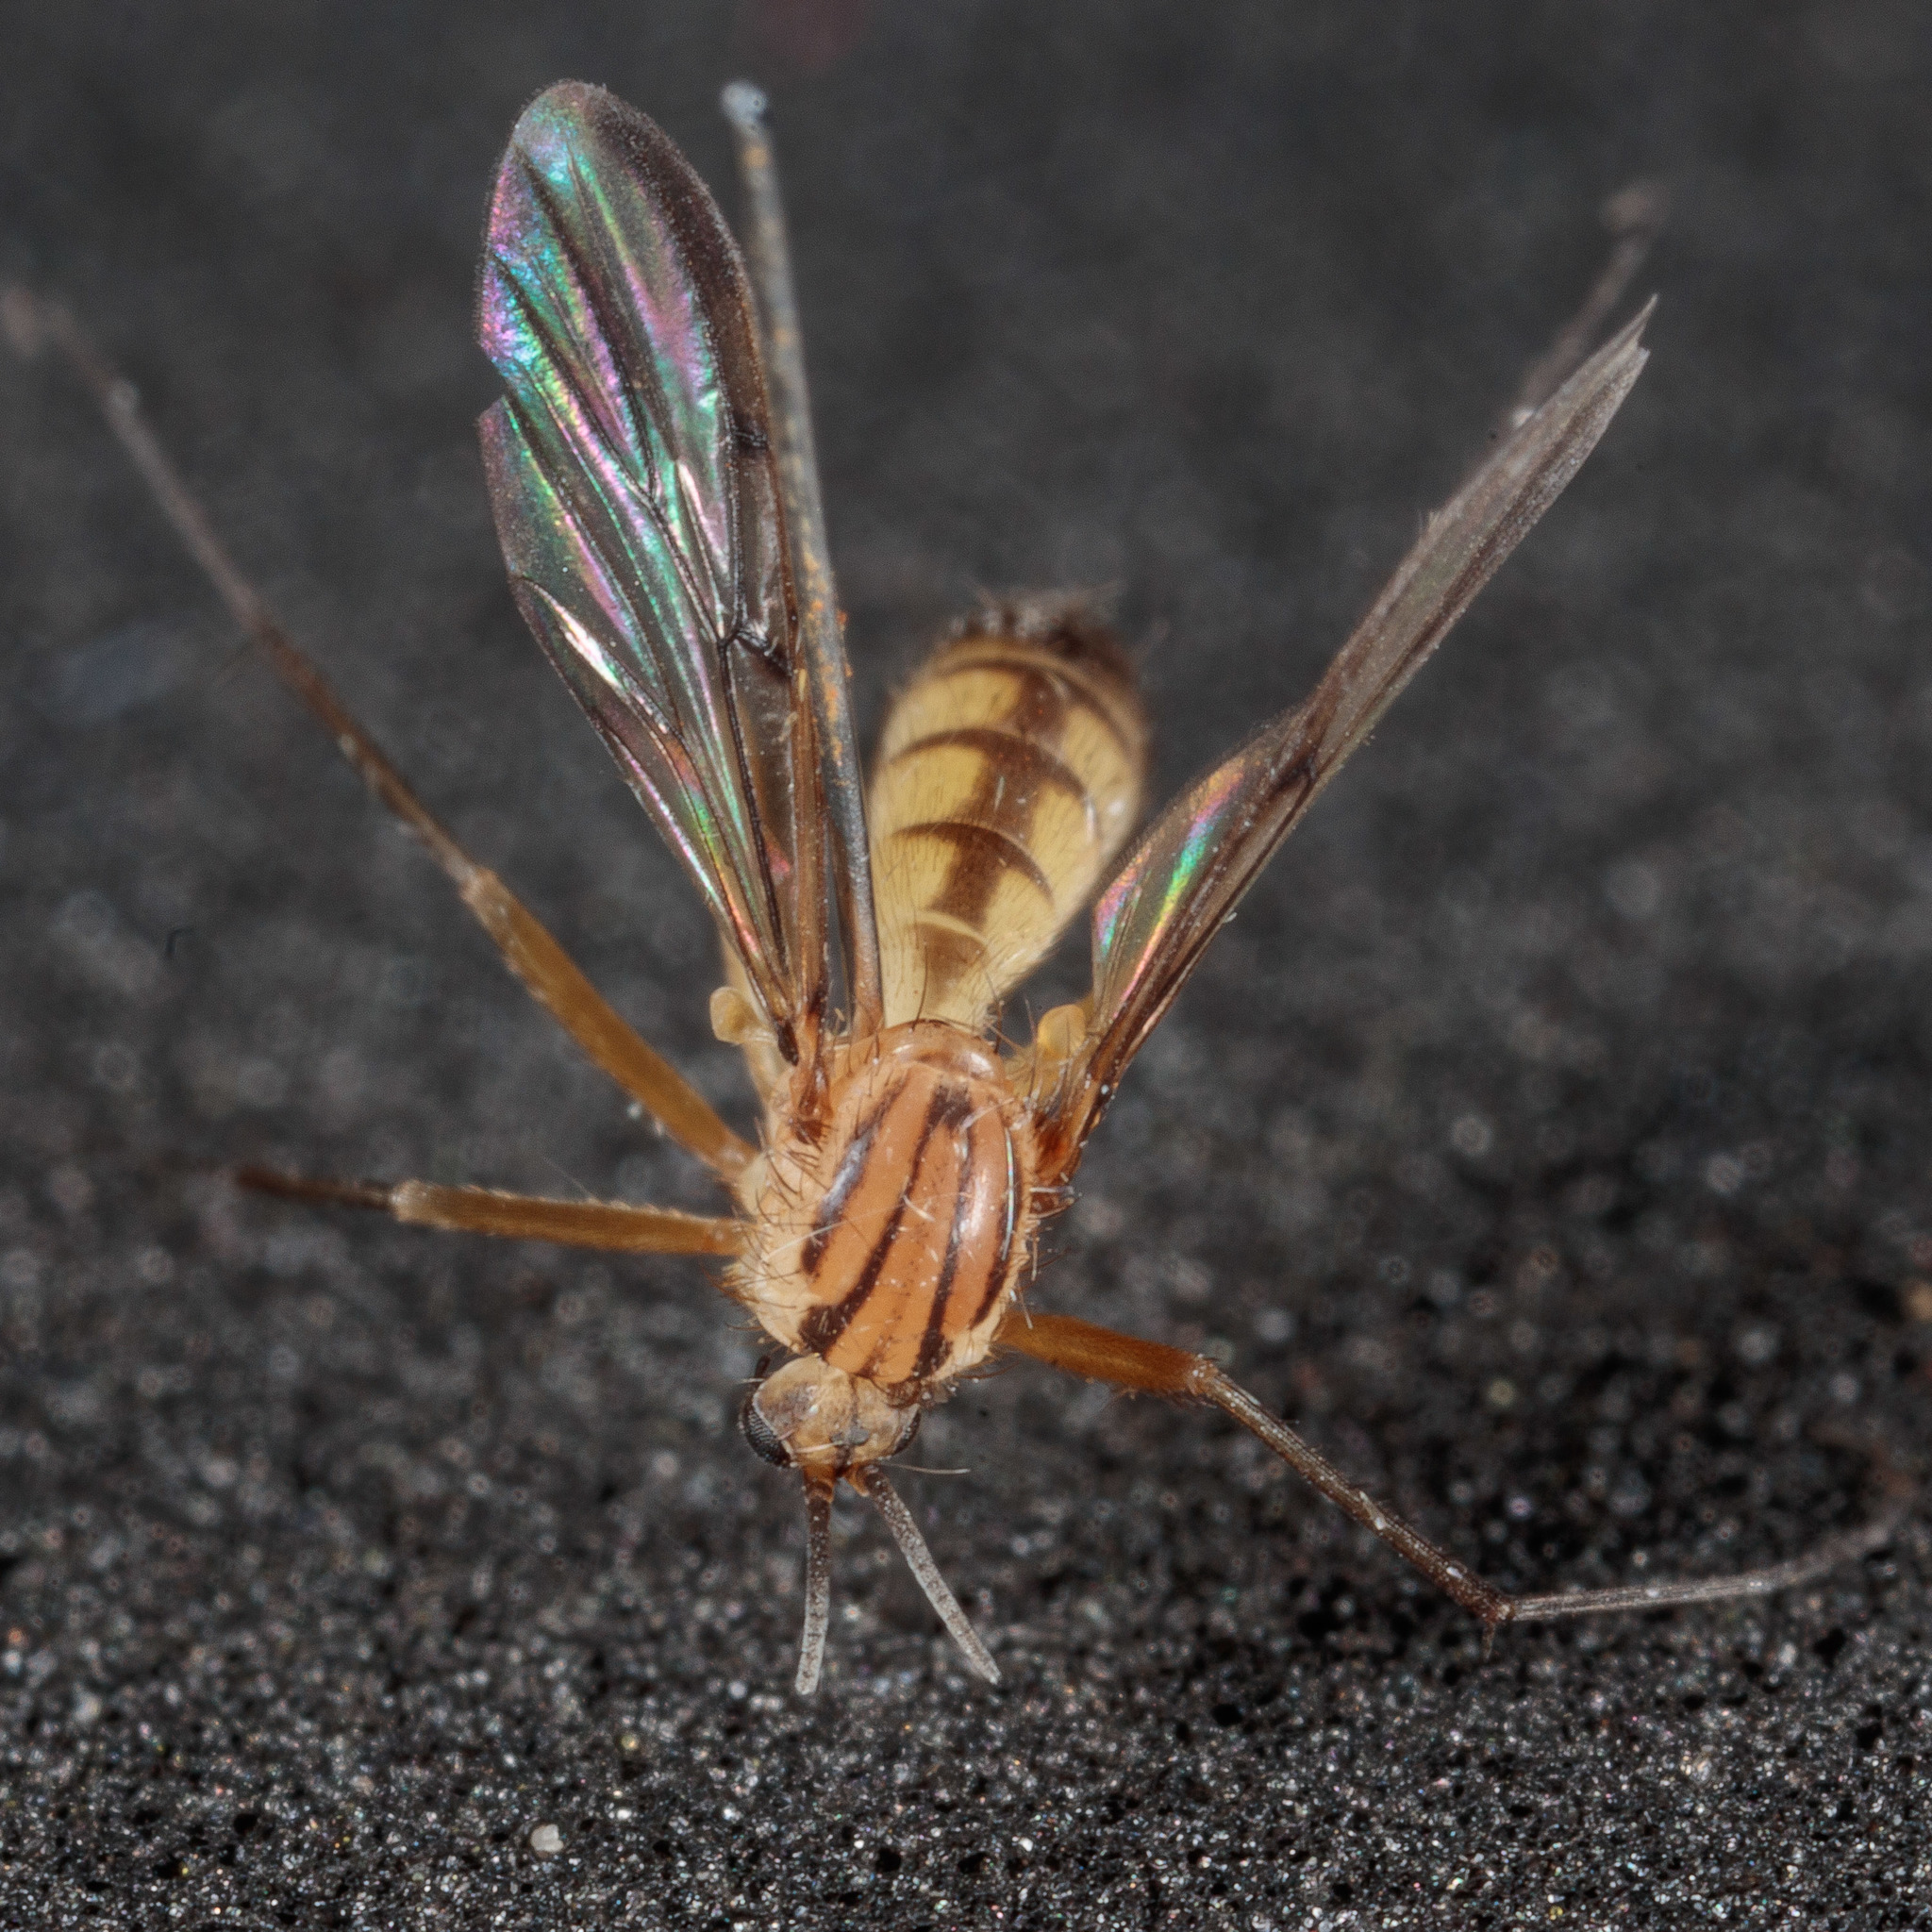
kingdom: Animalia
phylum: Arthropoda
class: Insecta
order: Diptera
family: Mycetophilidae
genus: Neoempheria
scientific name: Neoempheria balioptera
